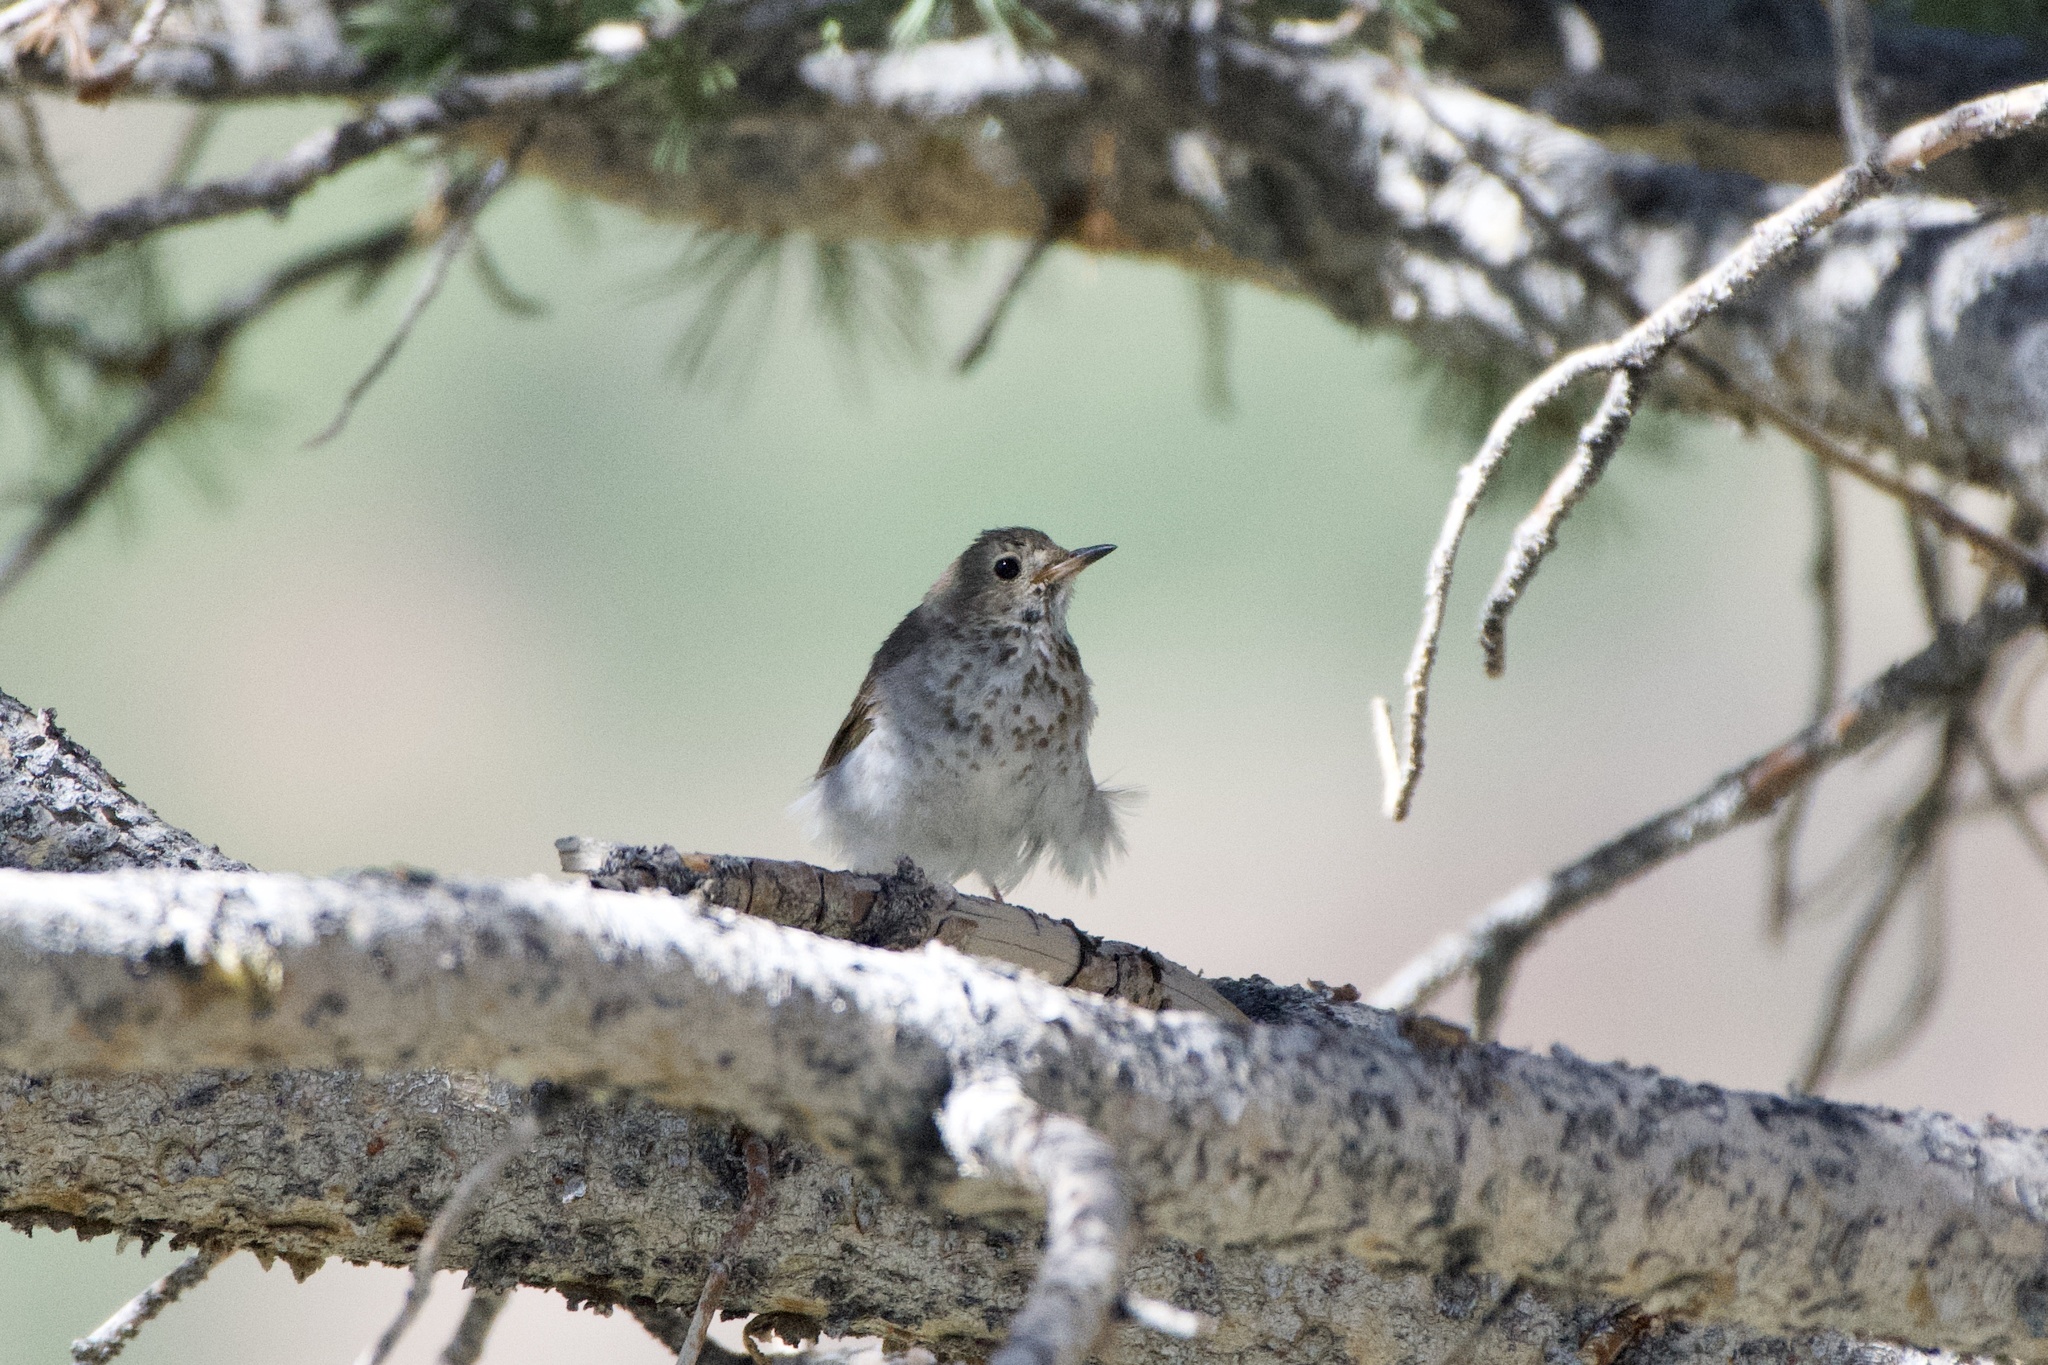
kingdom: Animalia
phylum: Chordata
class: Aves
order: Passeriformes
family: Turdidae
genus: Catharus
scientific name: Catharus guttatus
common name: Hermit thrush
